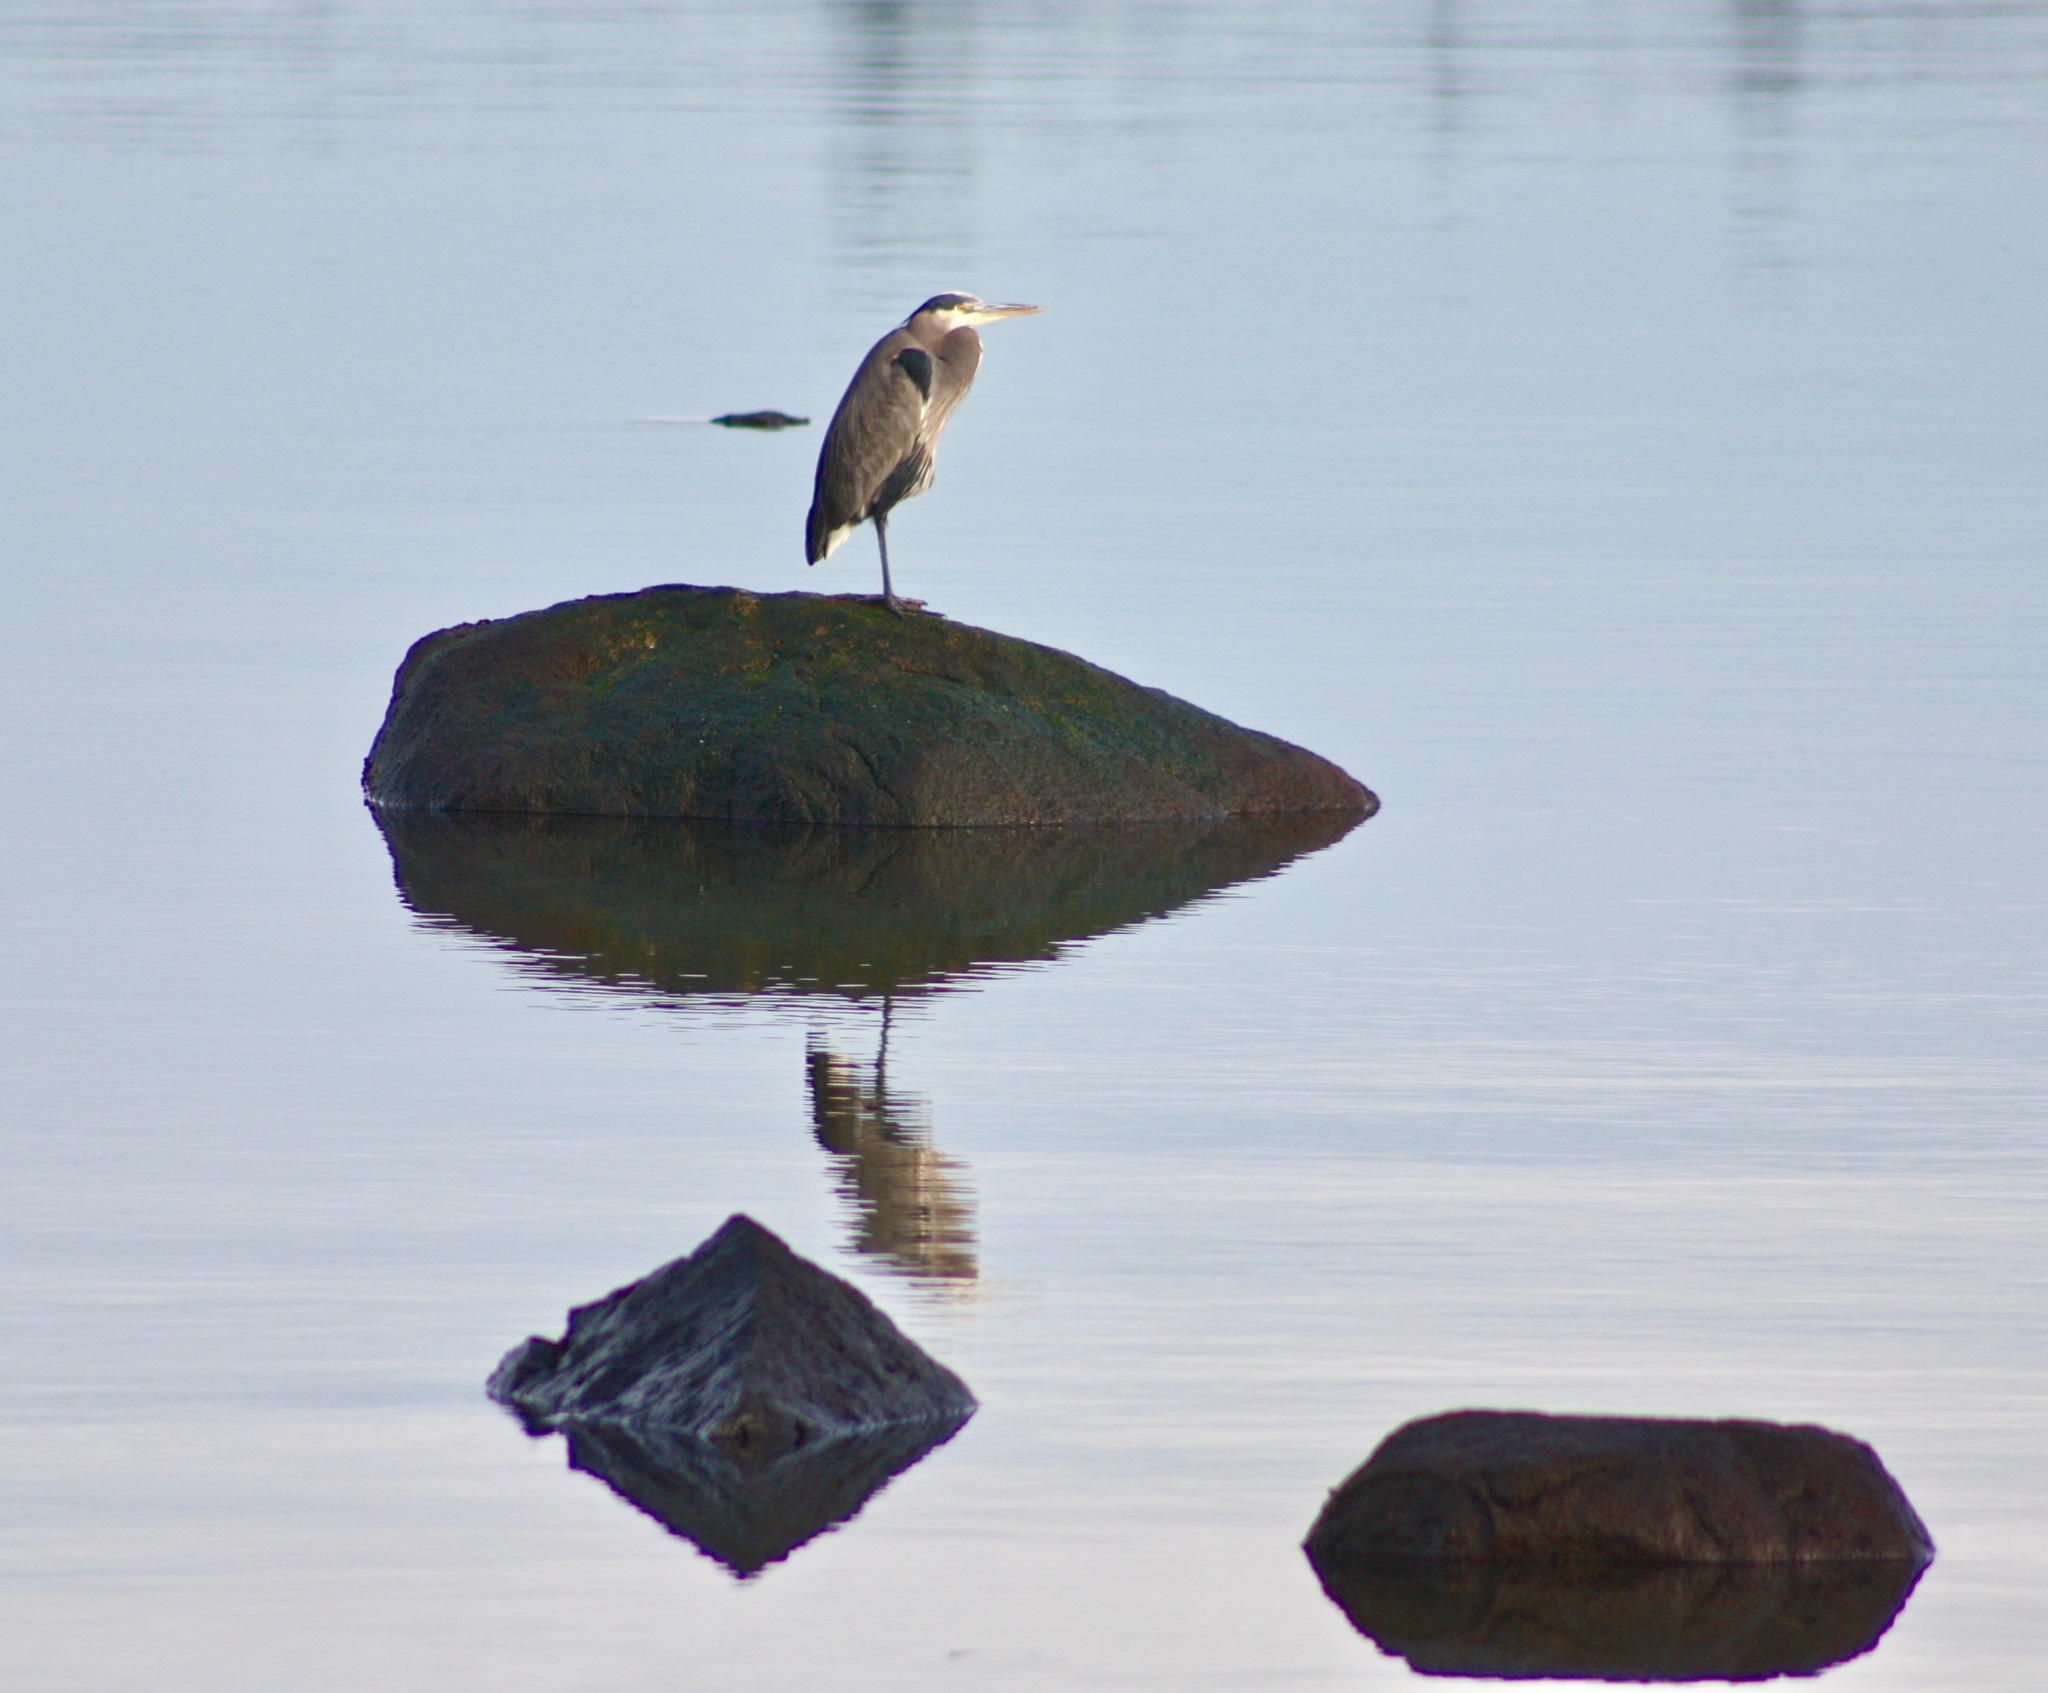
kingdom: Animalia
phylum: Chordata
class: Aves
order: Pelecaniformes
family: Ardeidae
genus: Ardea
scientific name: Ardea herodias
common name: Great blue heron
